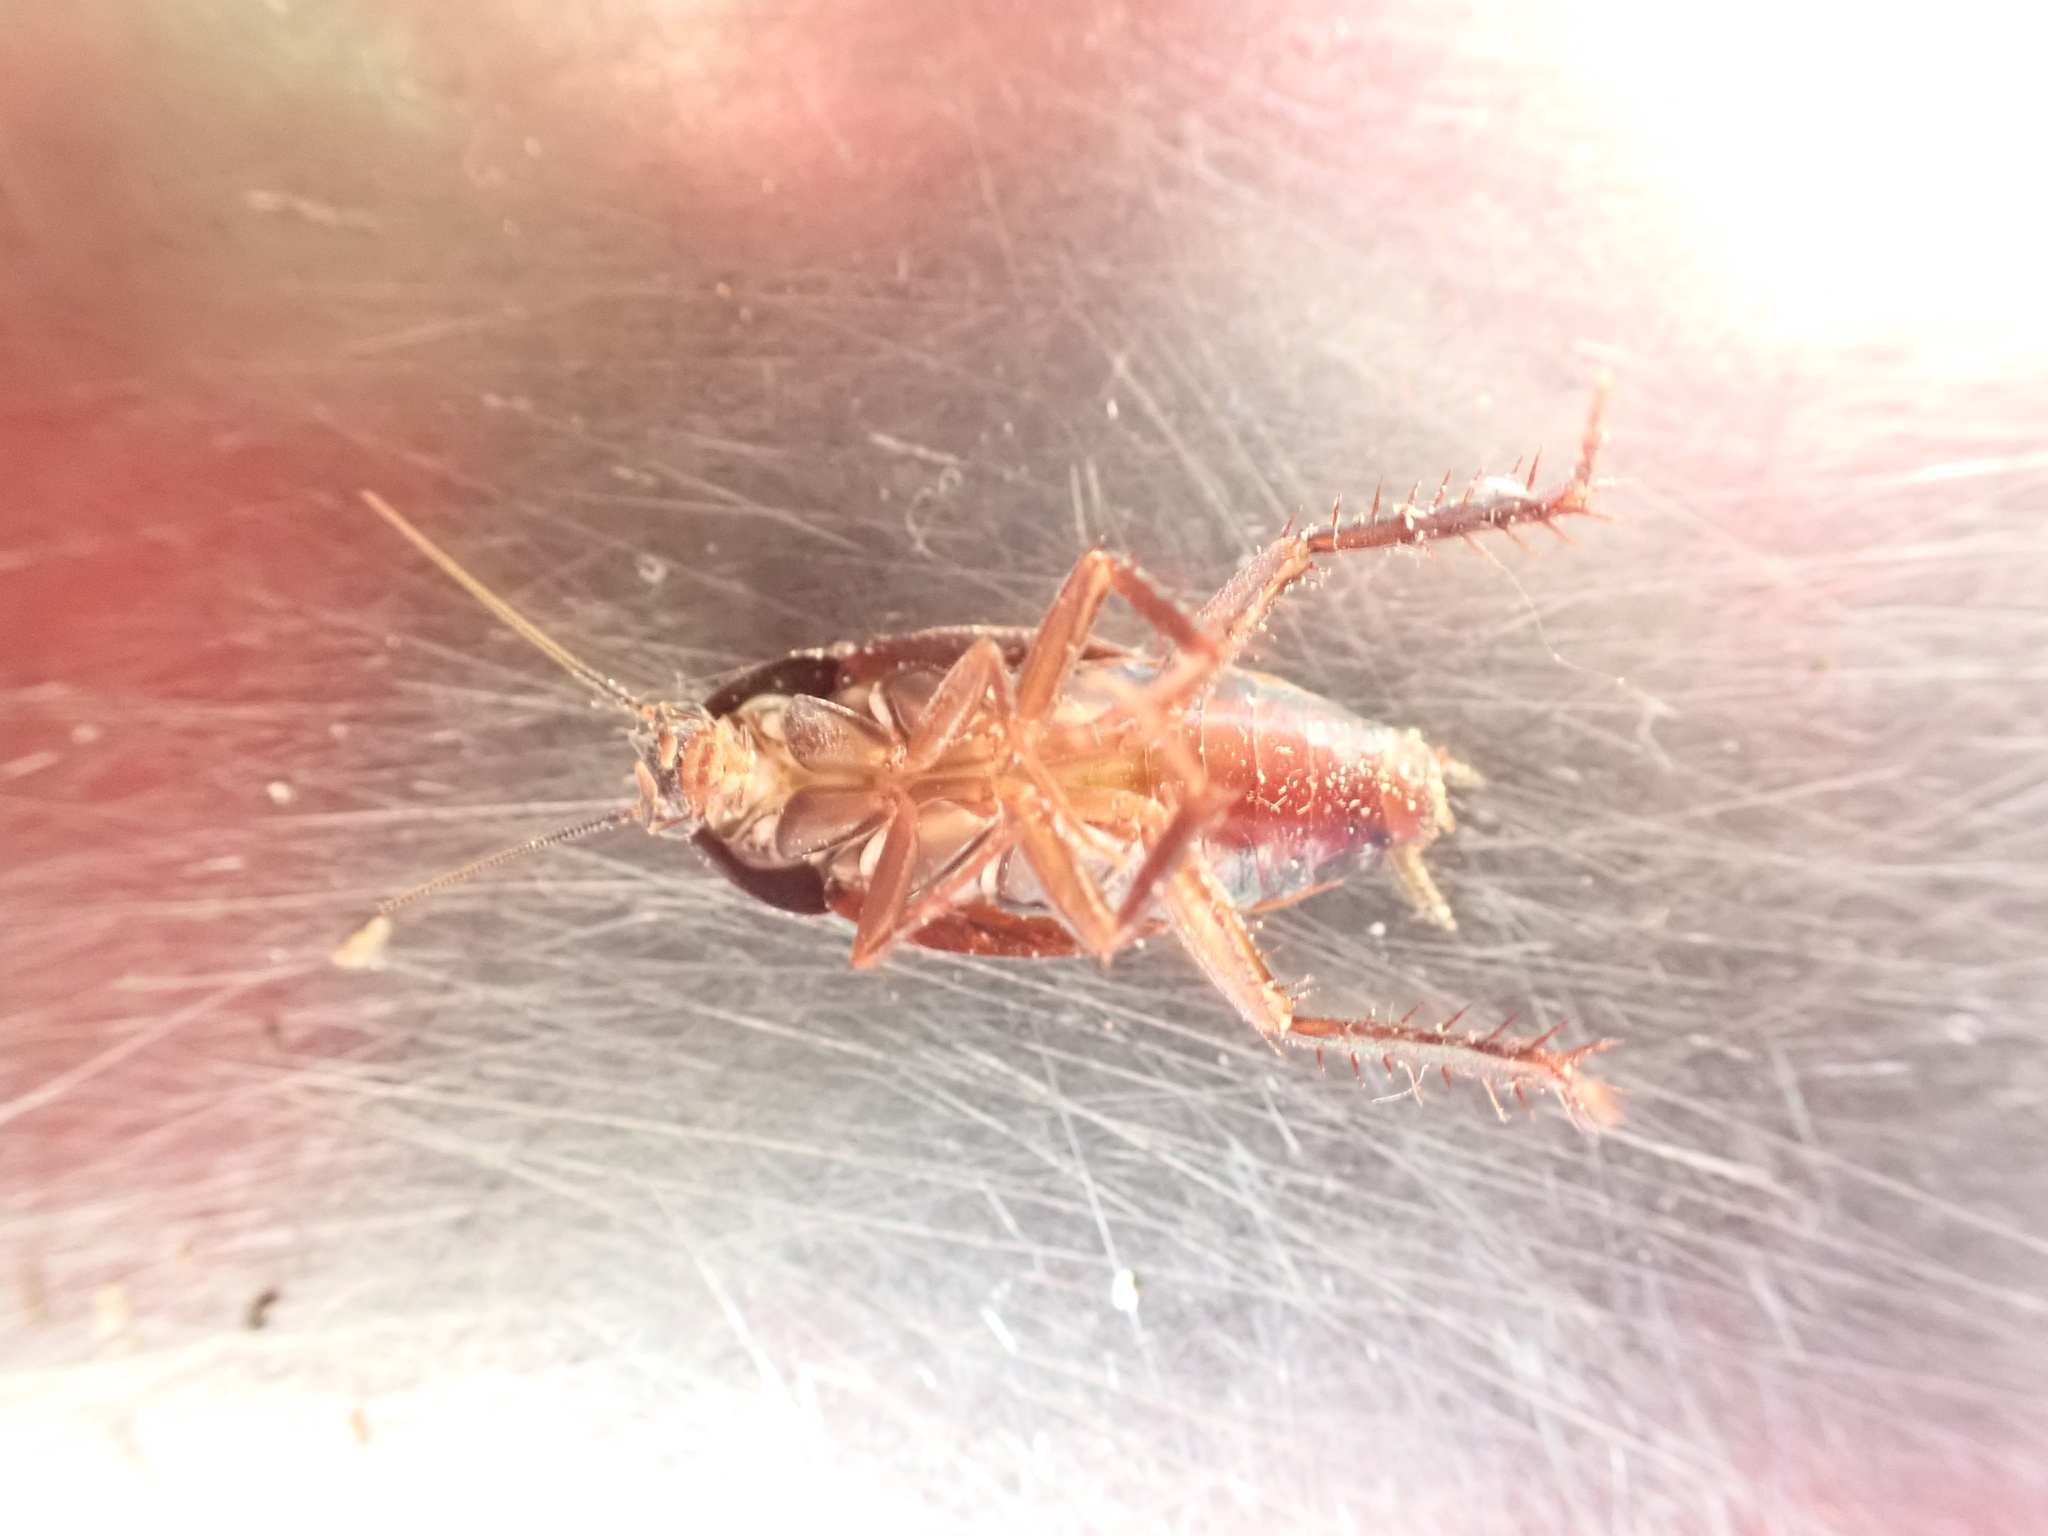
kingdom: Animalia
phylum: Arthropoda
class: Insecta
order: Blattodea
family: Ectobiidae
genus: Paratemnopteryx
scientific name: Paratemnopteryx couloniana
